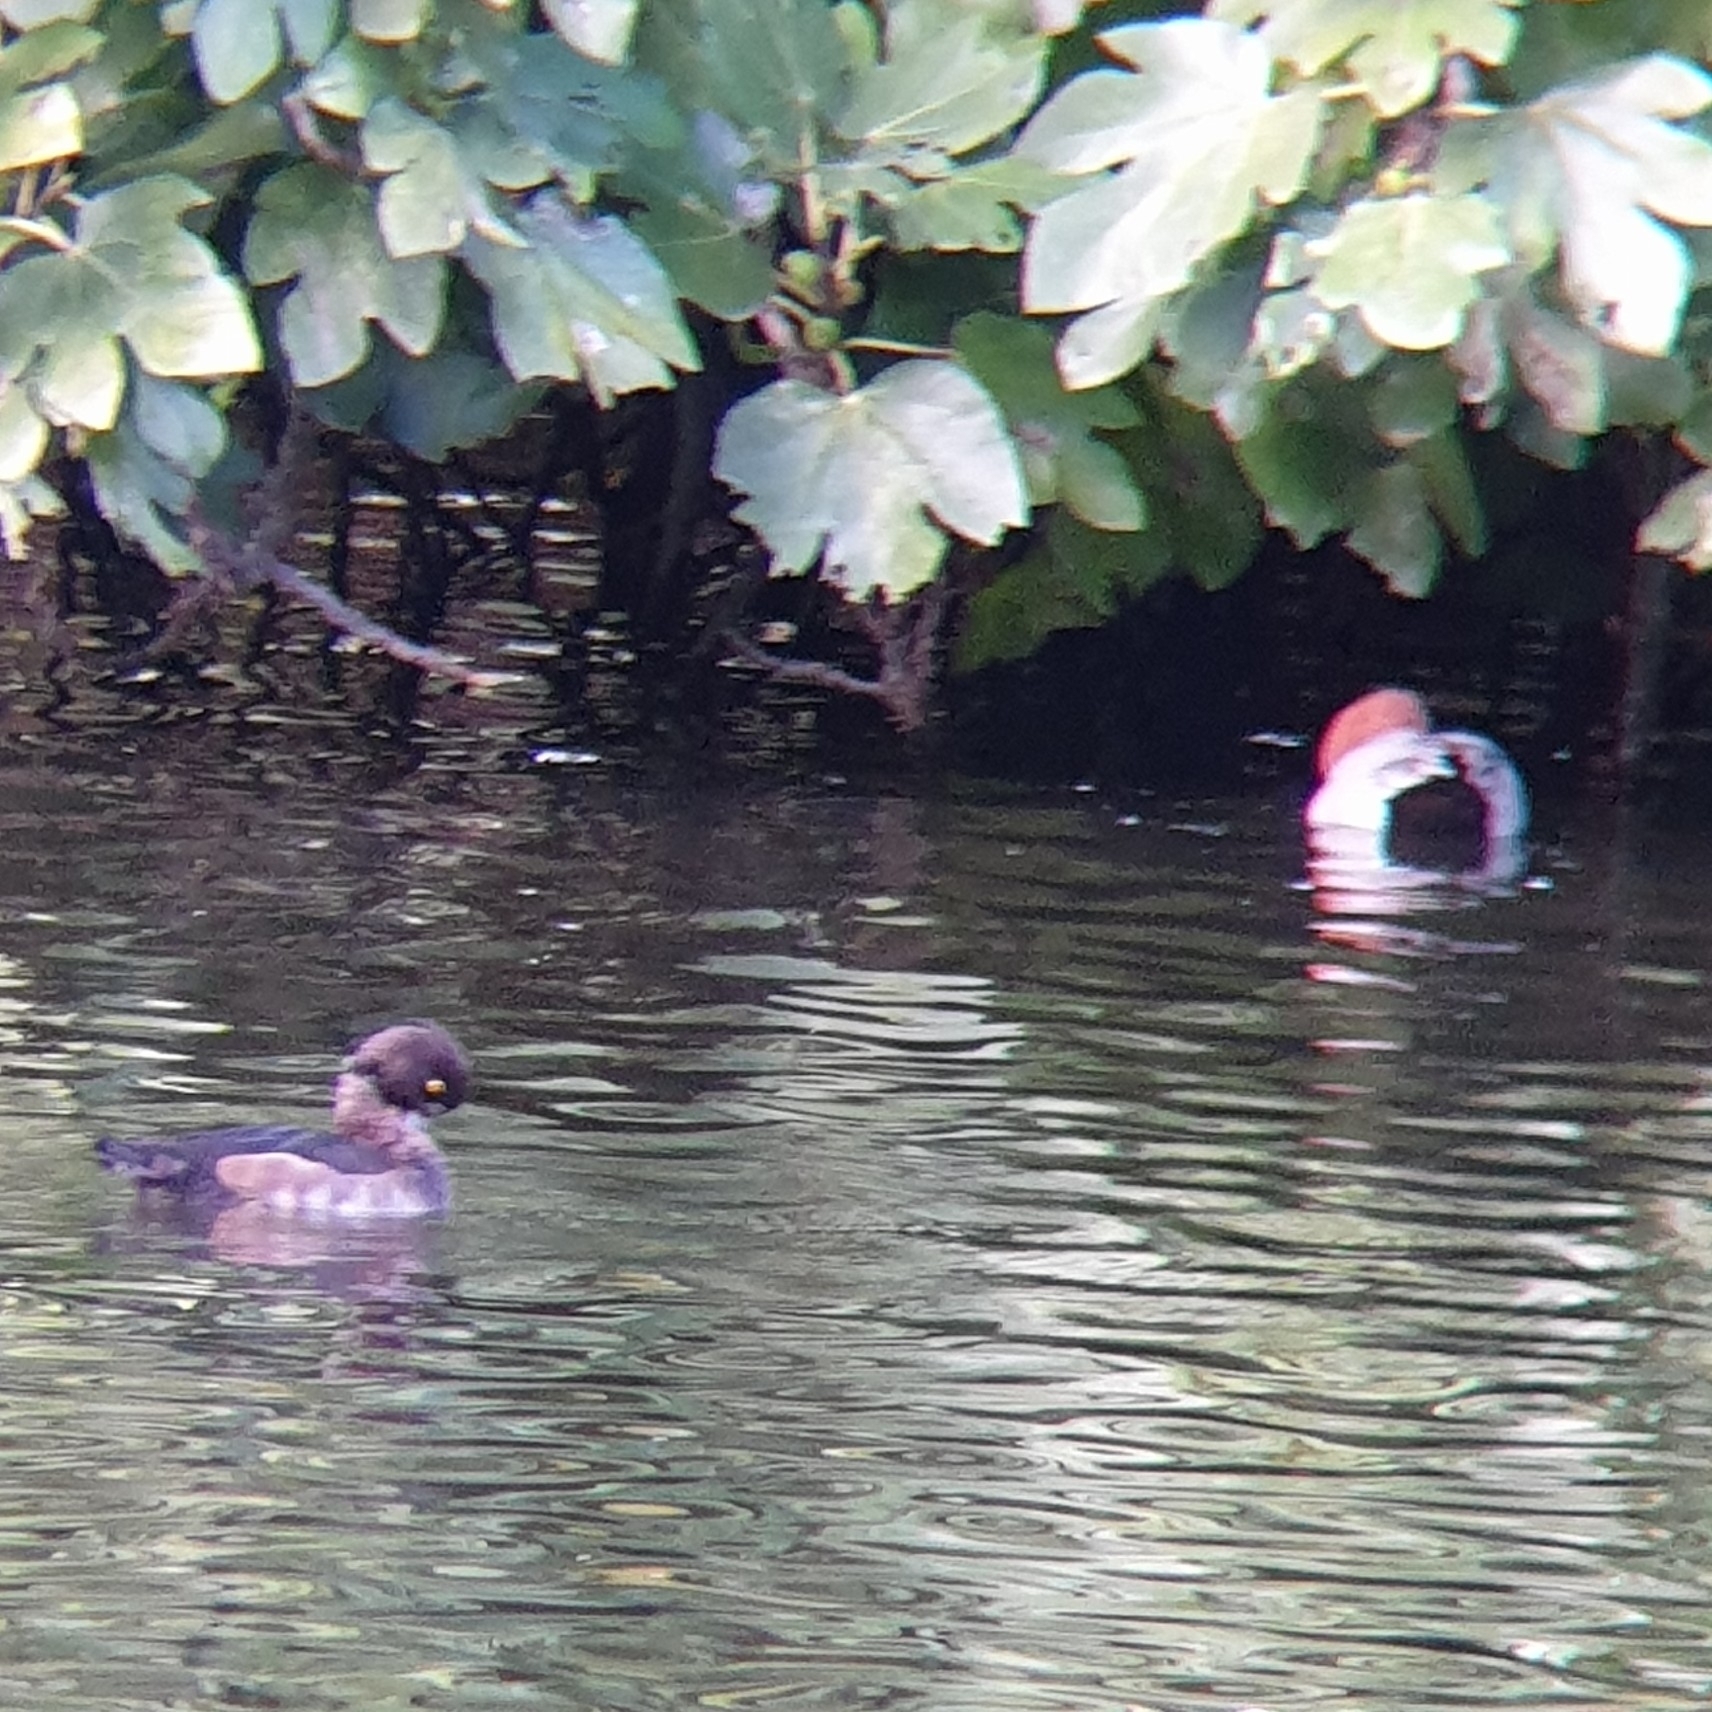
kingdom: Animalia
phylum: Chordata
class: Aves
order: Anseriformes
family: Anatidae
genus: Aythya
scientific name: Aythya fuligula
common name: Tufted duck
